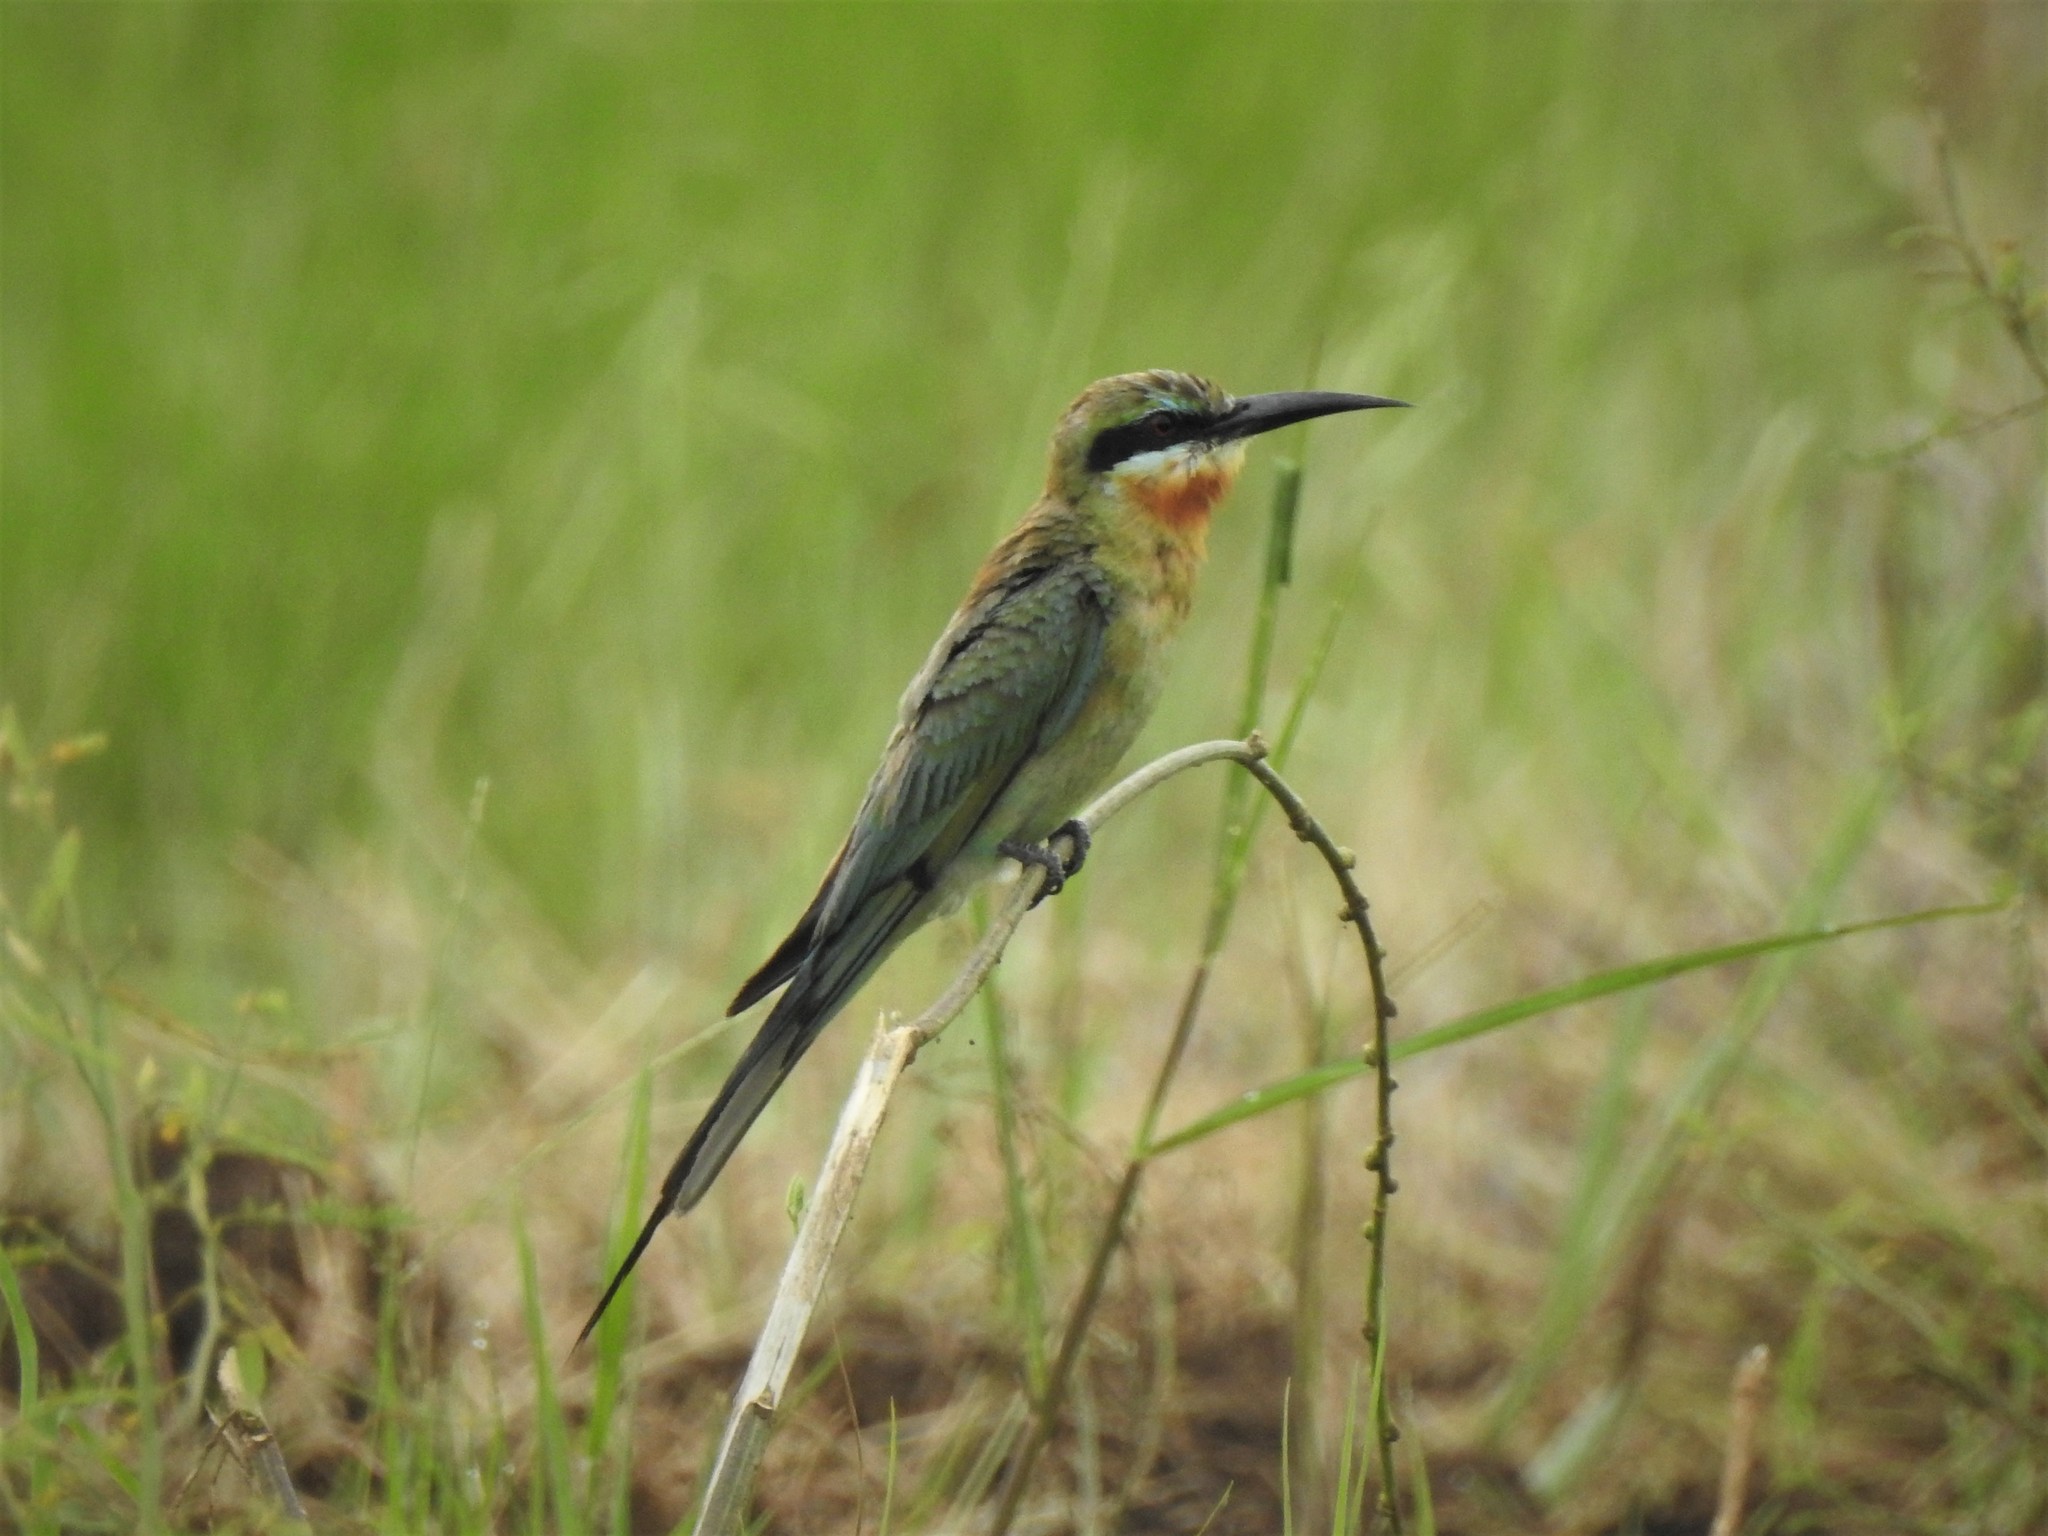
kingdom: Animalia
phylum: Chordata
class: Aves
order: Coraciiformes
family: Meropidae
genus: Merops
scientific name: Merops philippinus
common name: Blue-tailed bee-eater
